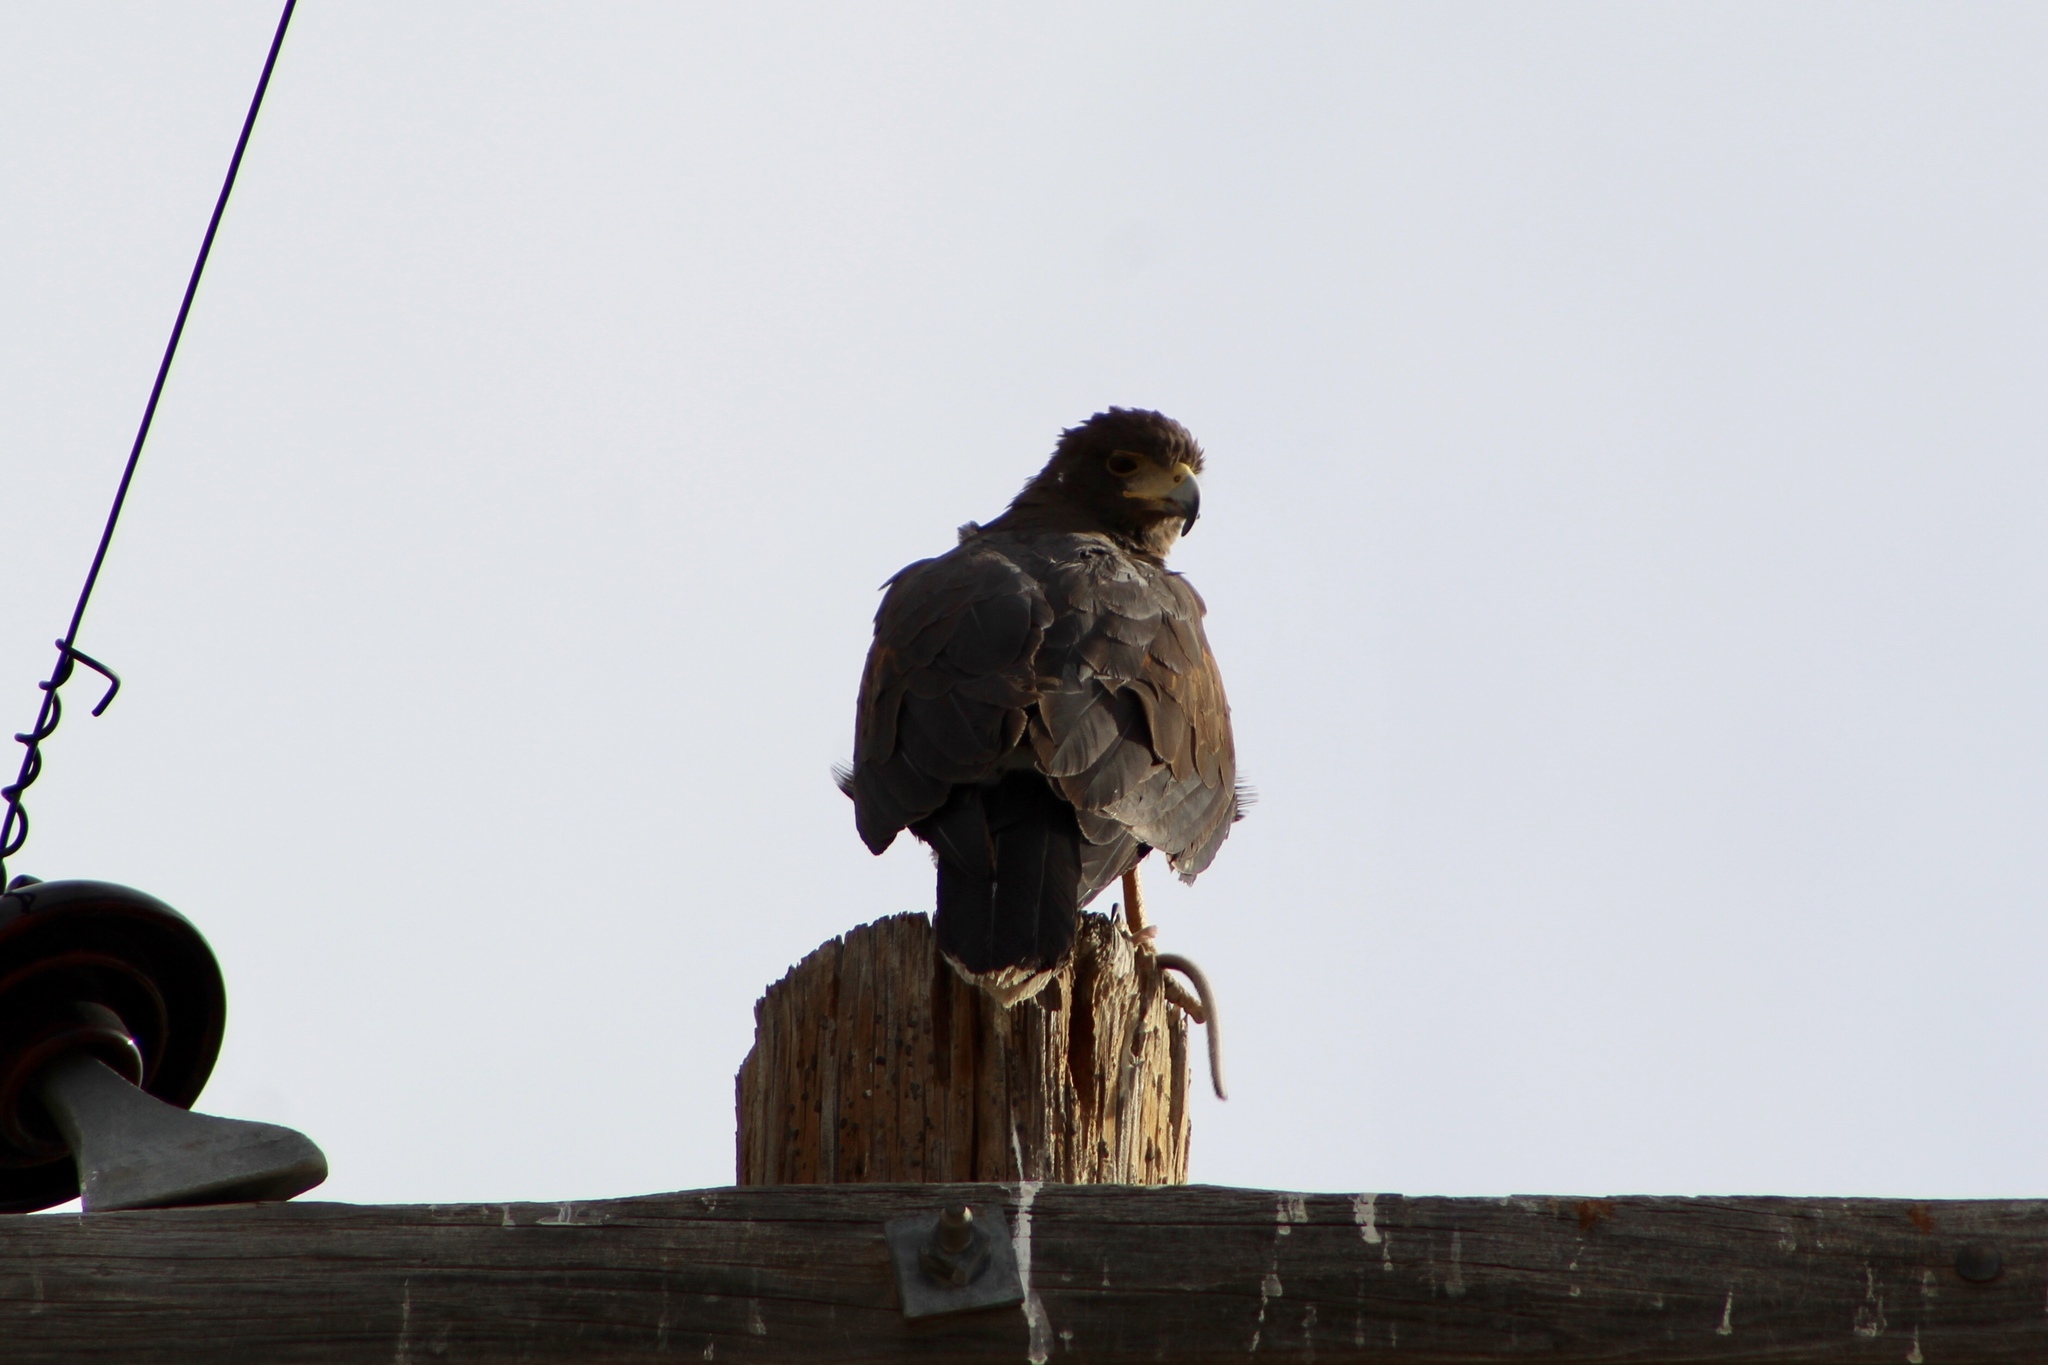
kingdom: Animalia
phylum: Chordata
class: Aves
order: Accipitriformes
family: Accipitridae
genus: Parabuteo
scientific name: Parabuteo unicinctus
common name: Harris's hawk
